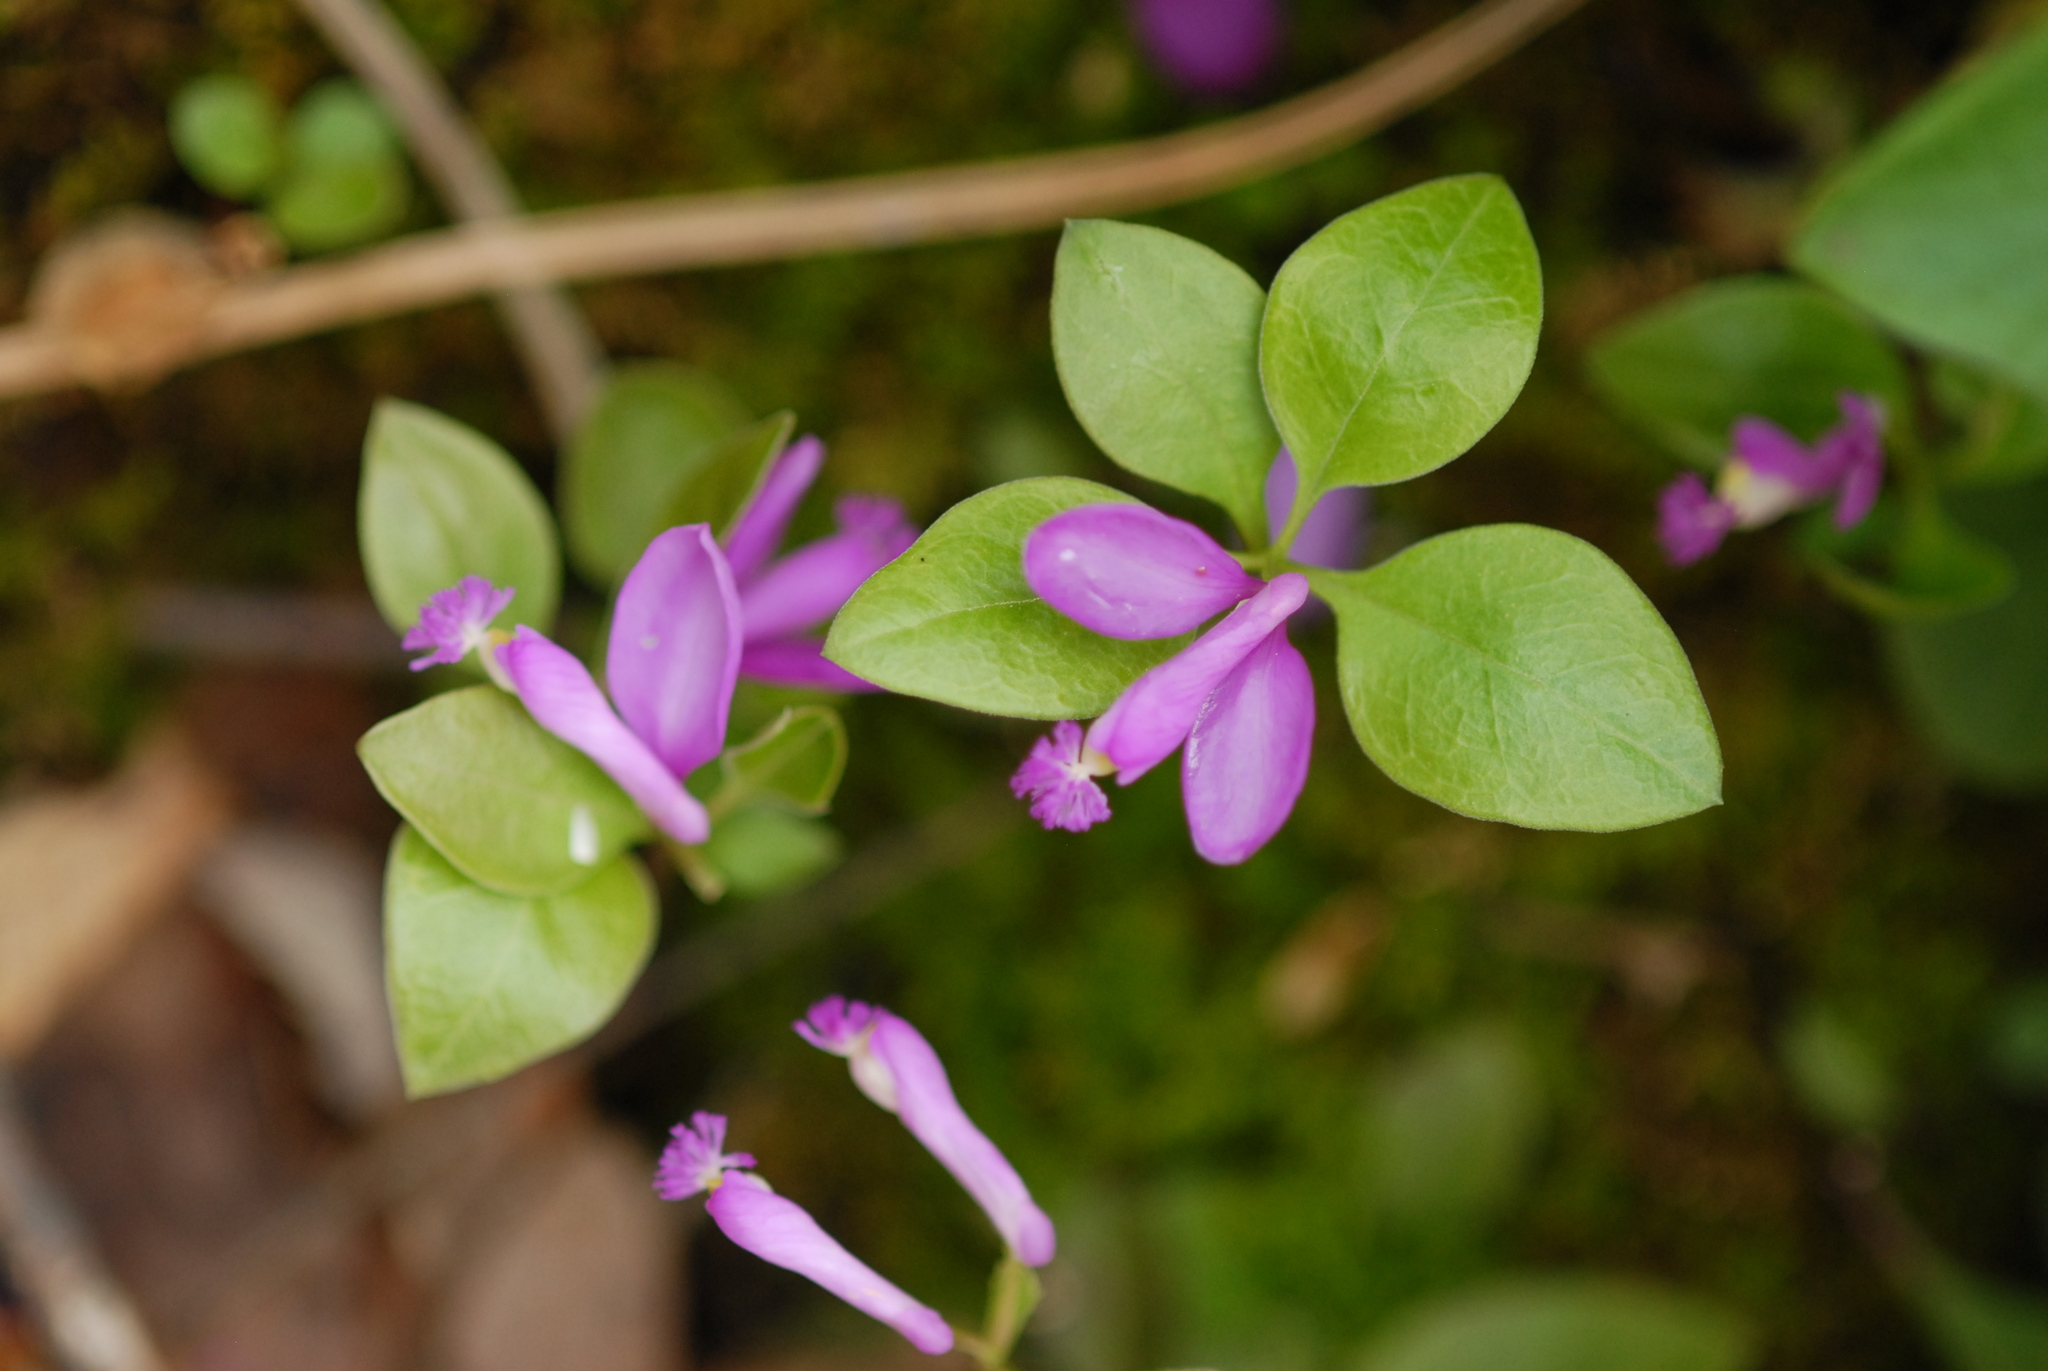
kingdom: Plantae
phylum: Tracheophyta
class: Magnoliopsida
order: Fabales
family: Polygalaceae
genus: Polygaloides
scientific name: Polygaloides paucifolia
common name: Bird-on-the-wing
